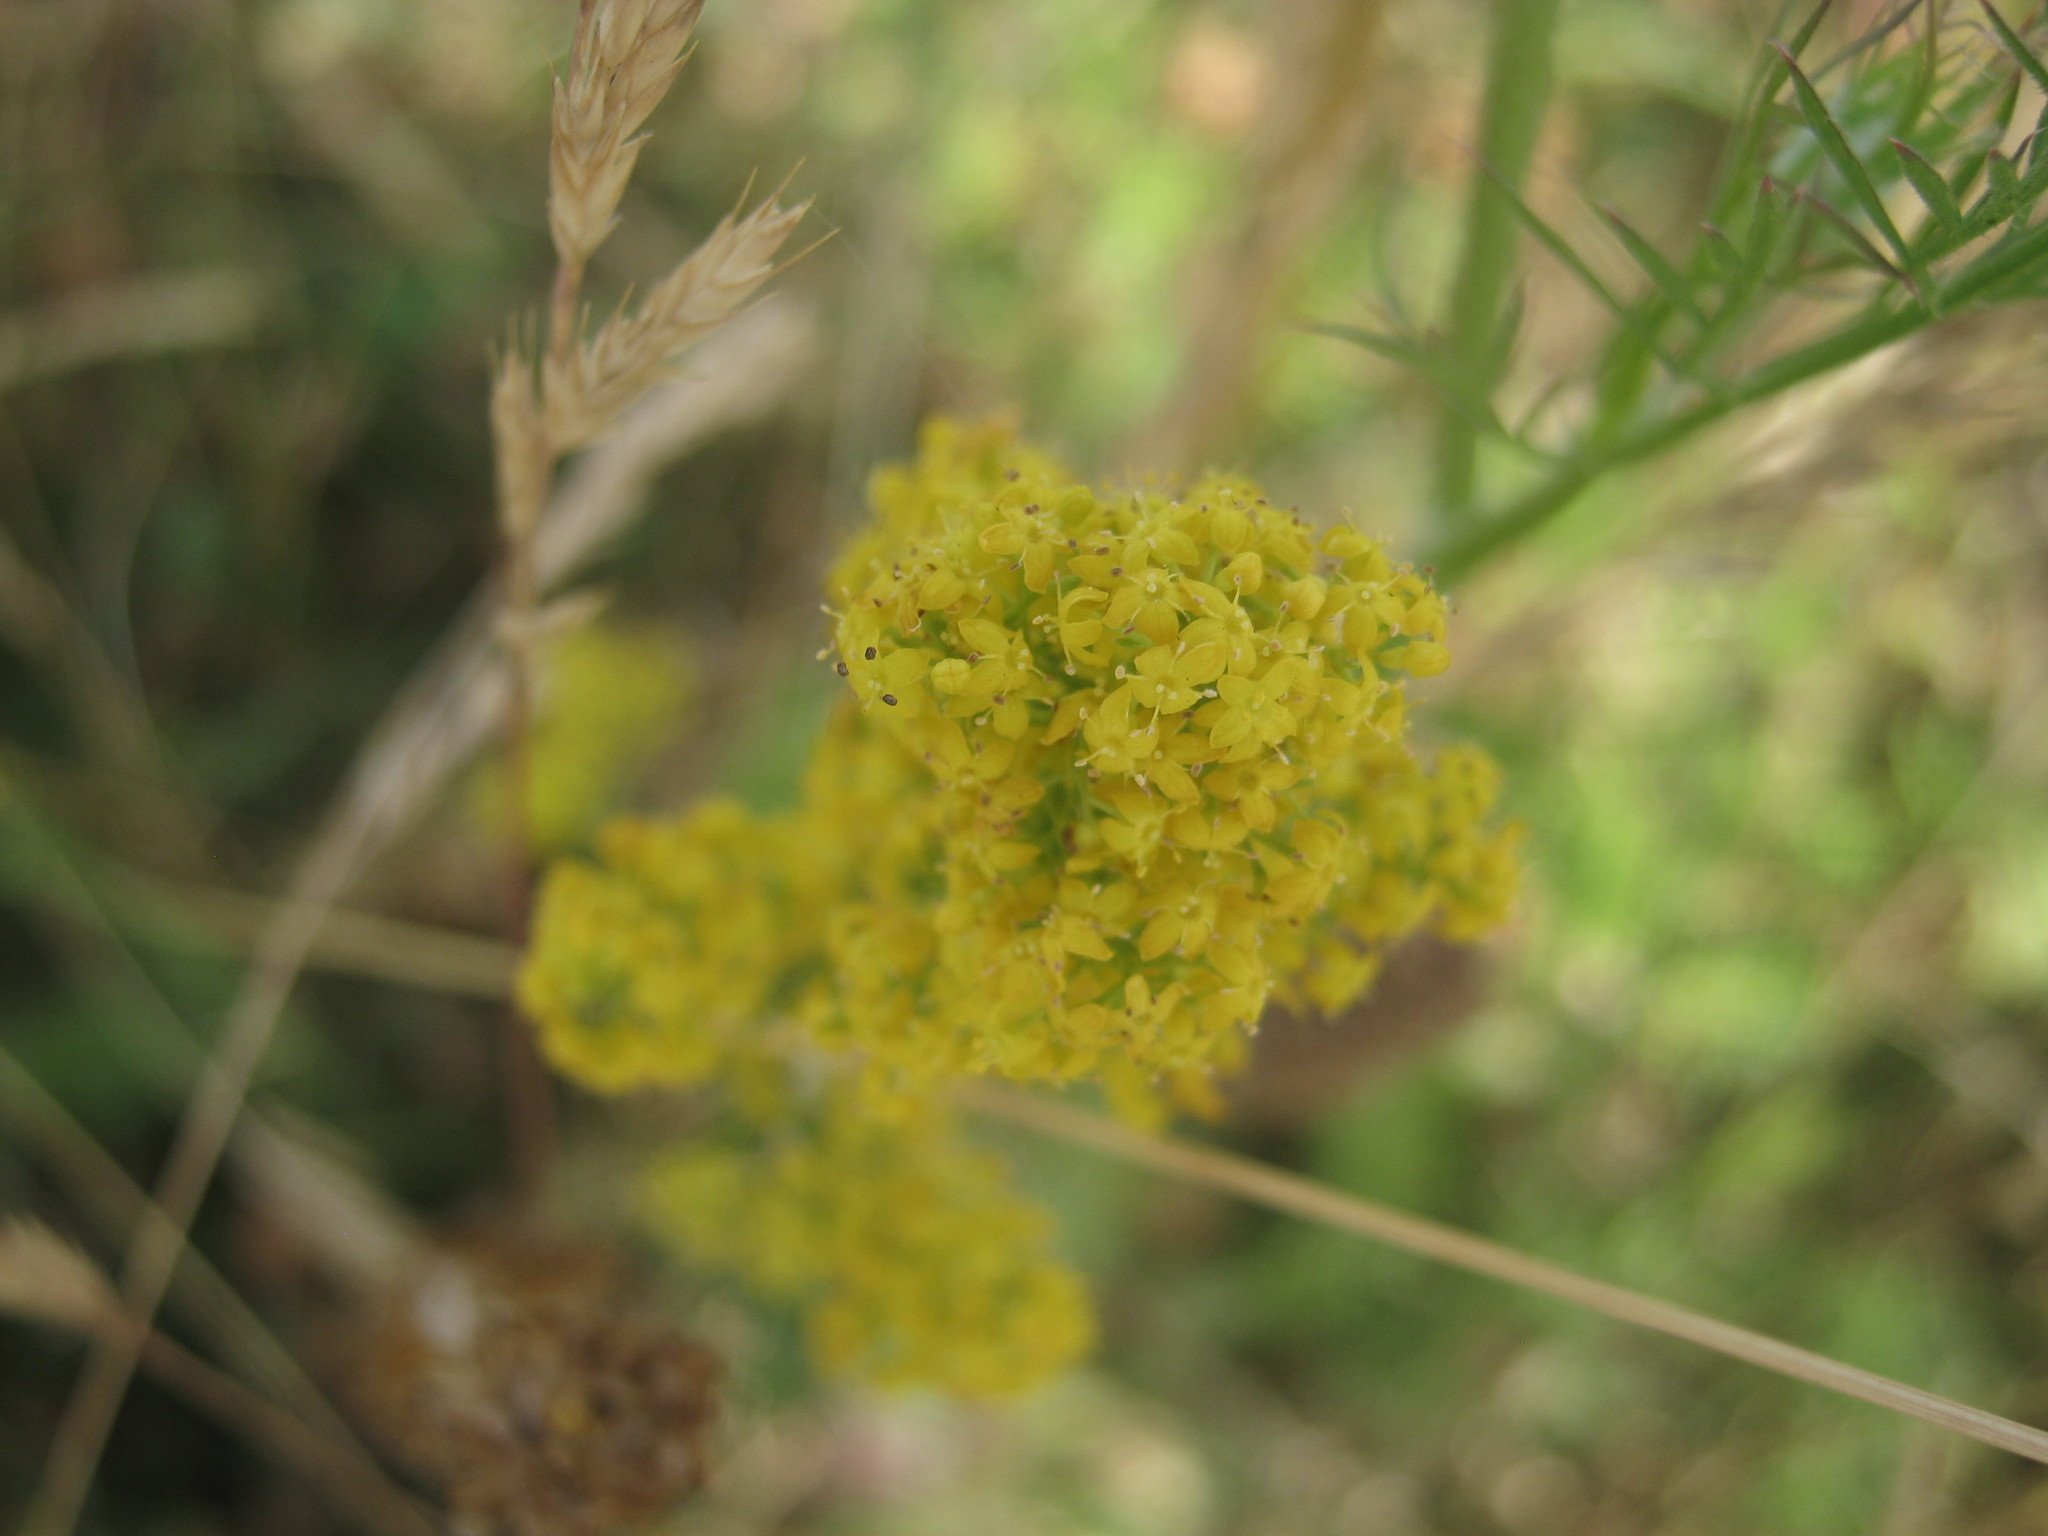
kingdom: Plantae
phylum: Tracheophyta
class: Magnoliopsida
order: Gentianales
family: Rubiaceae
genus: Galium
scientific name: Galium verum
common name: Lady's bedstraw
